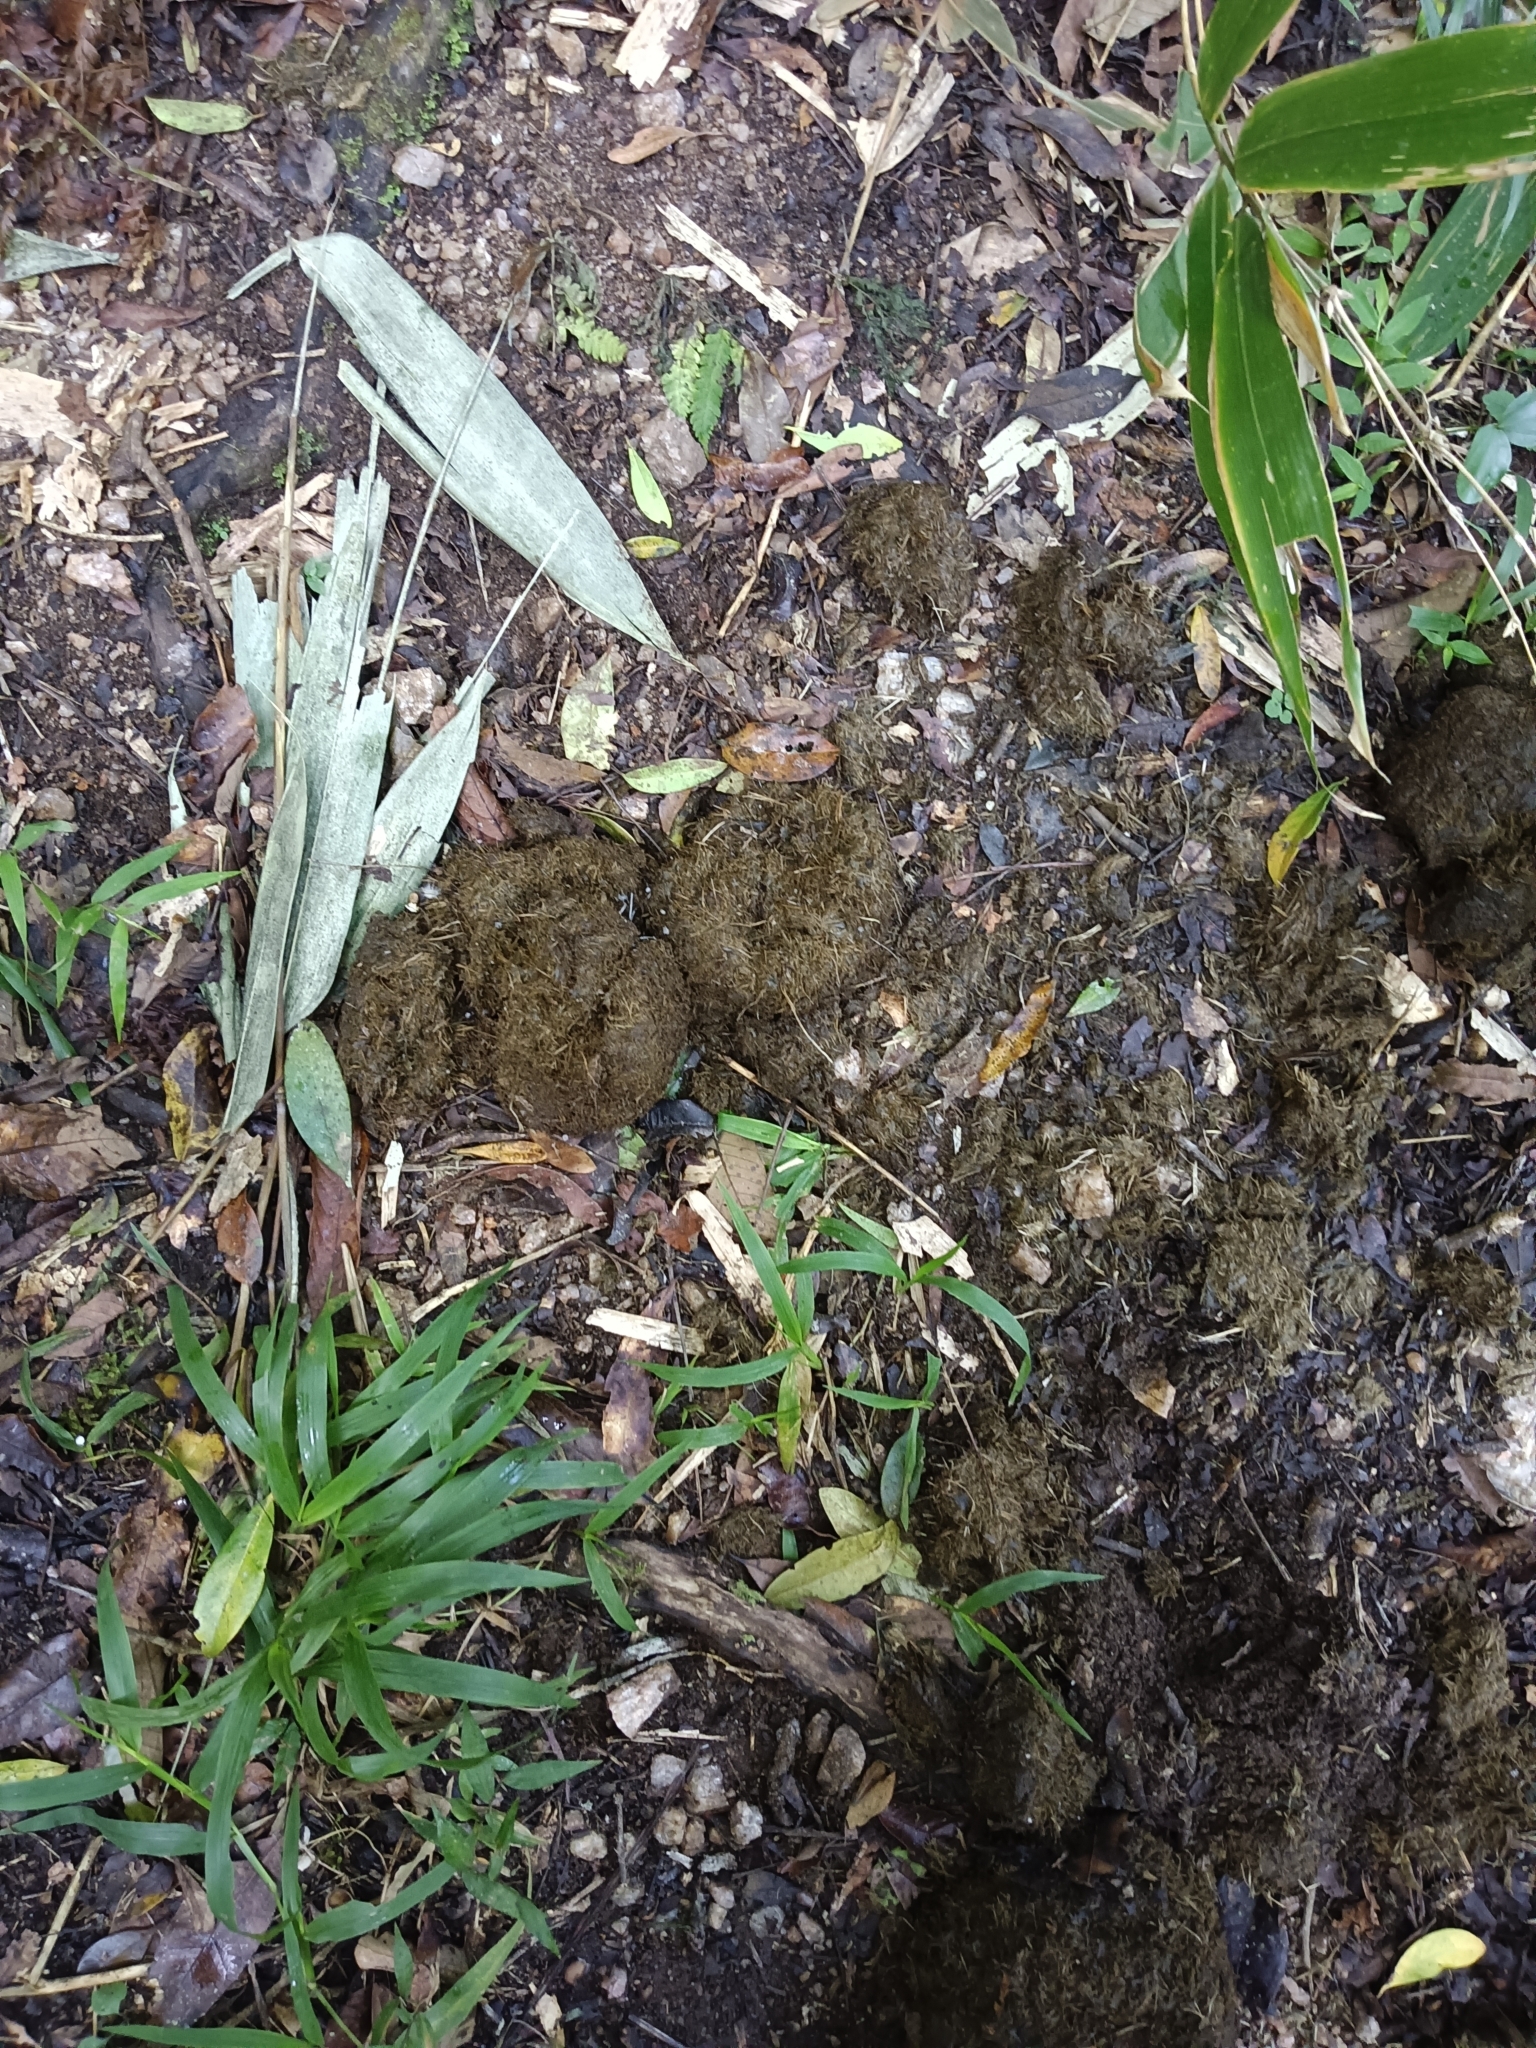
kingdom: Animalia
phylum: Chordata
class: Mammalia
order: Proboscidea
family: Elephantidae
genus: Elephas
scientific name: Elephas maximus
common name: Asian elephant
